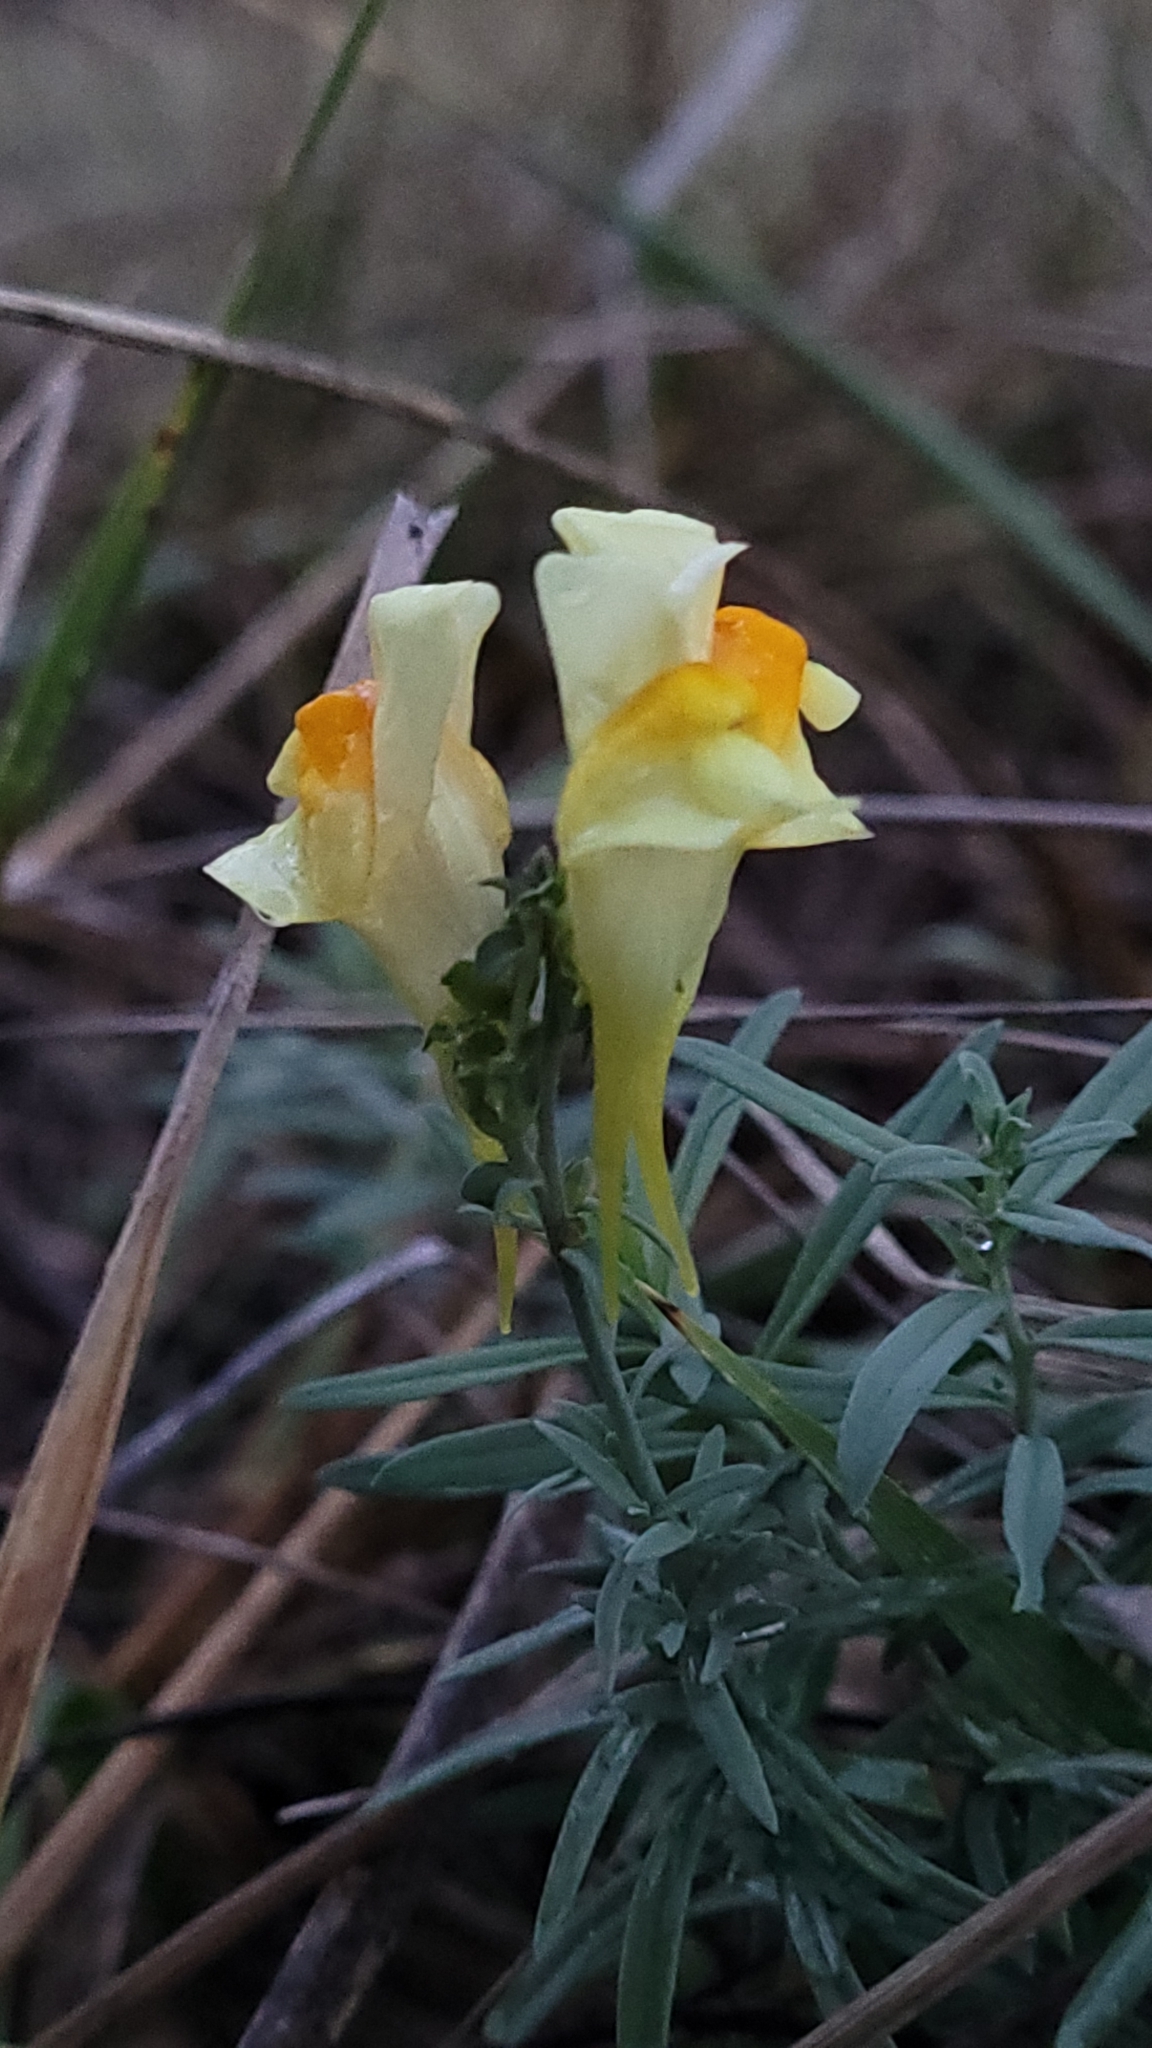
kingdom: Plantae
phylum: Tracheophyta
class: Magnoliopsida
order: Lamiales
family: Plantaginaceae
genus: Linaria
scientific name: Linaria vulgaris
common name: Butter and eggs
